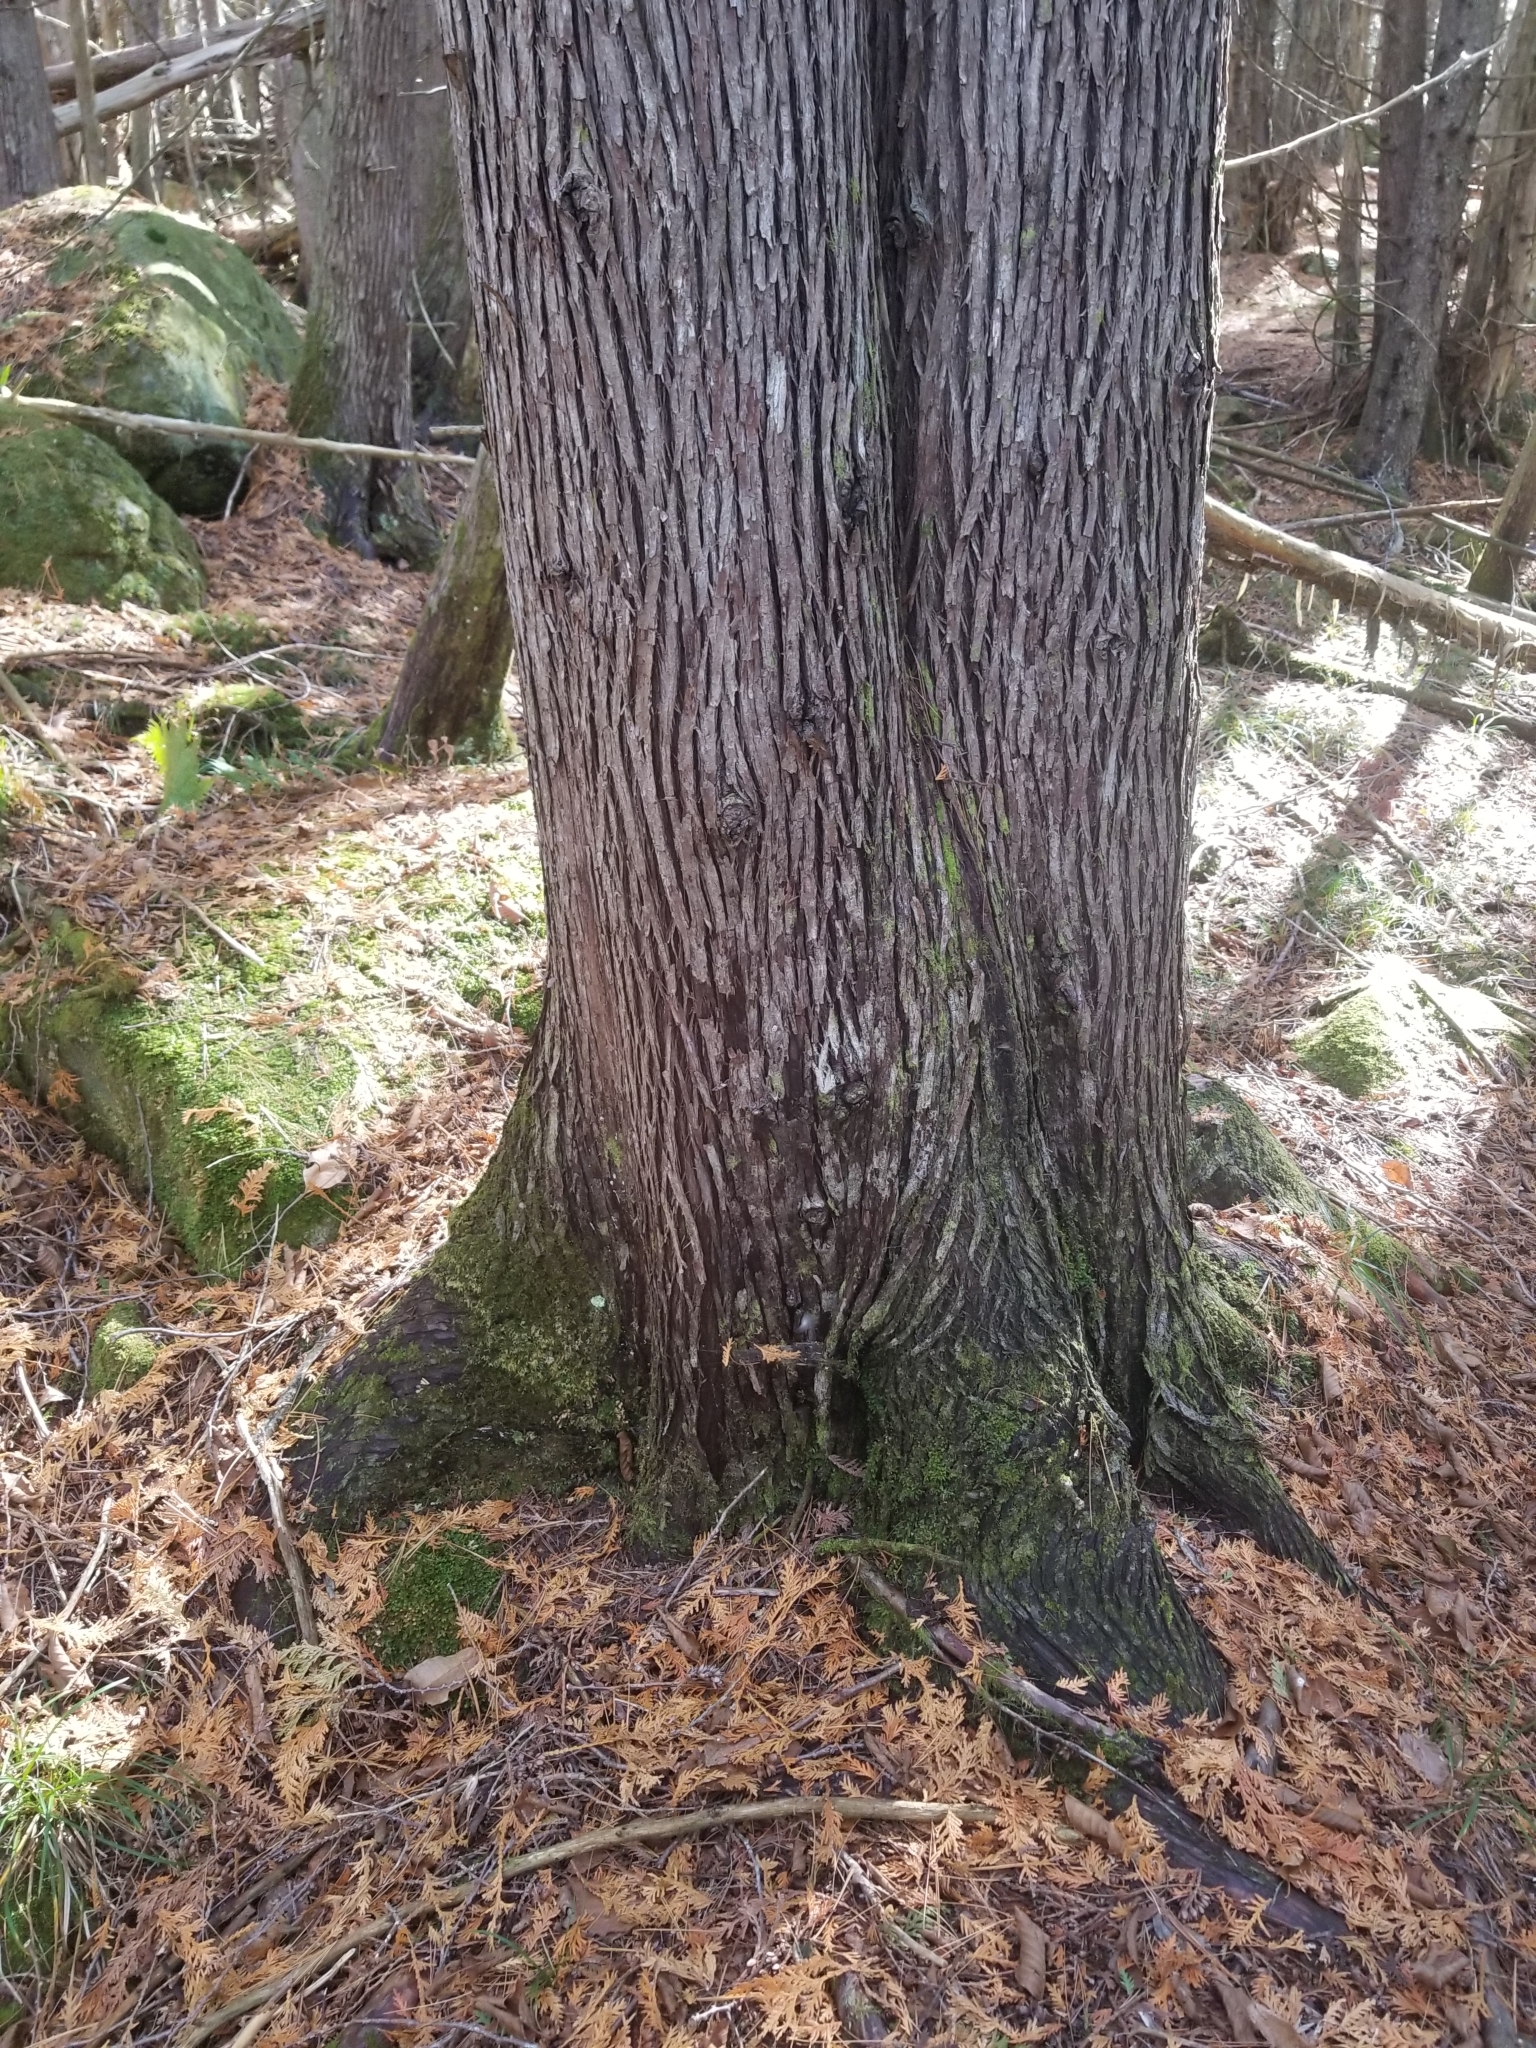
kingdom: Plantae
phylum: Tracheophyta
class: Pinopsida
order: Pinales
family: Cupressaceae
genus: Thuja
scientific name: Thuja occidentalis
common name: Northern white-cedar
